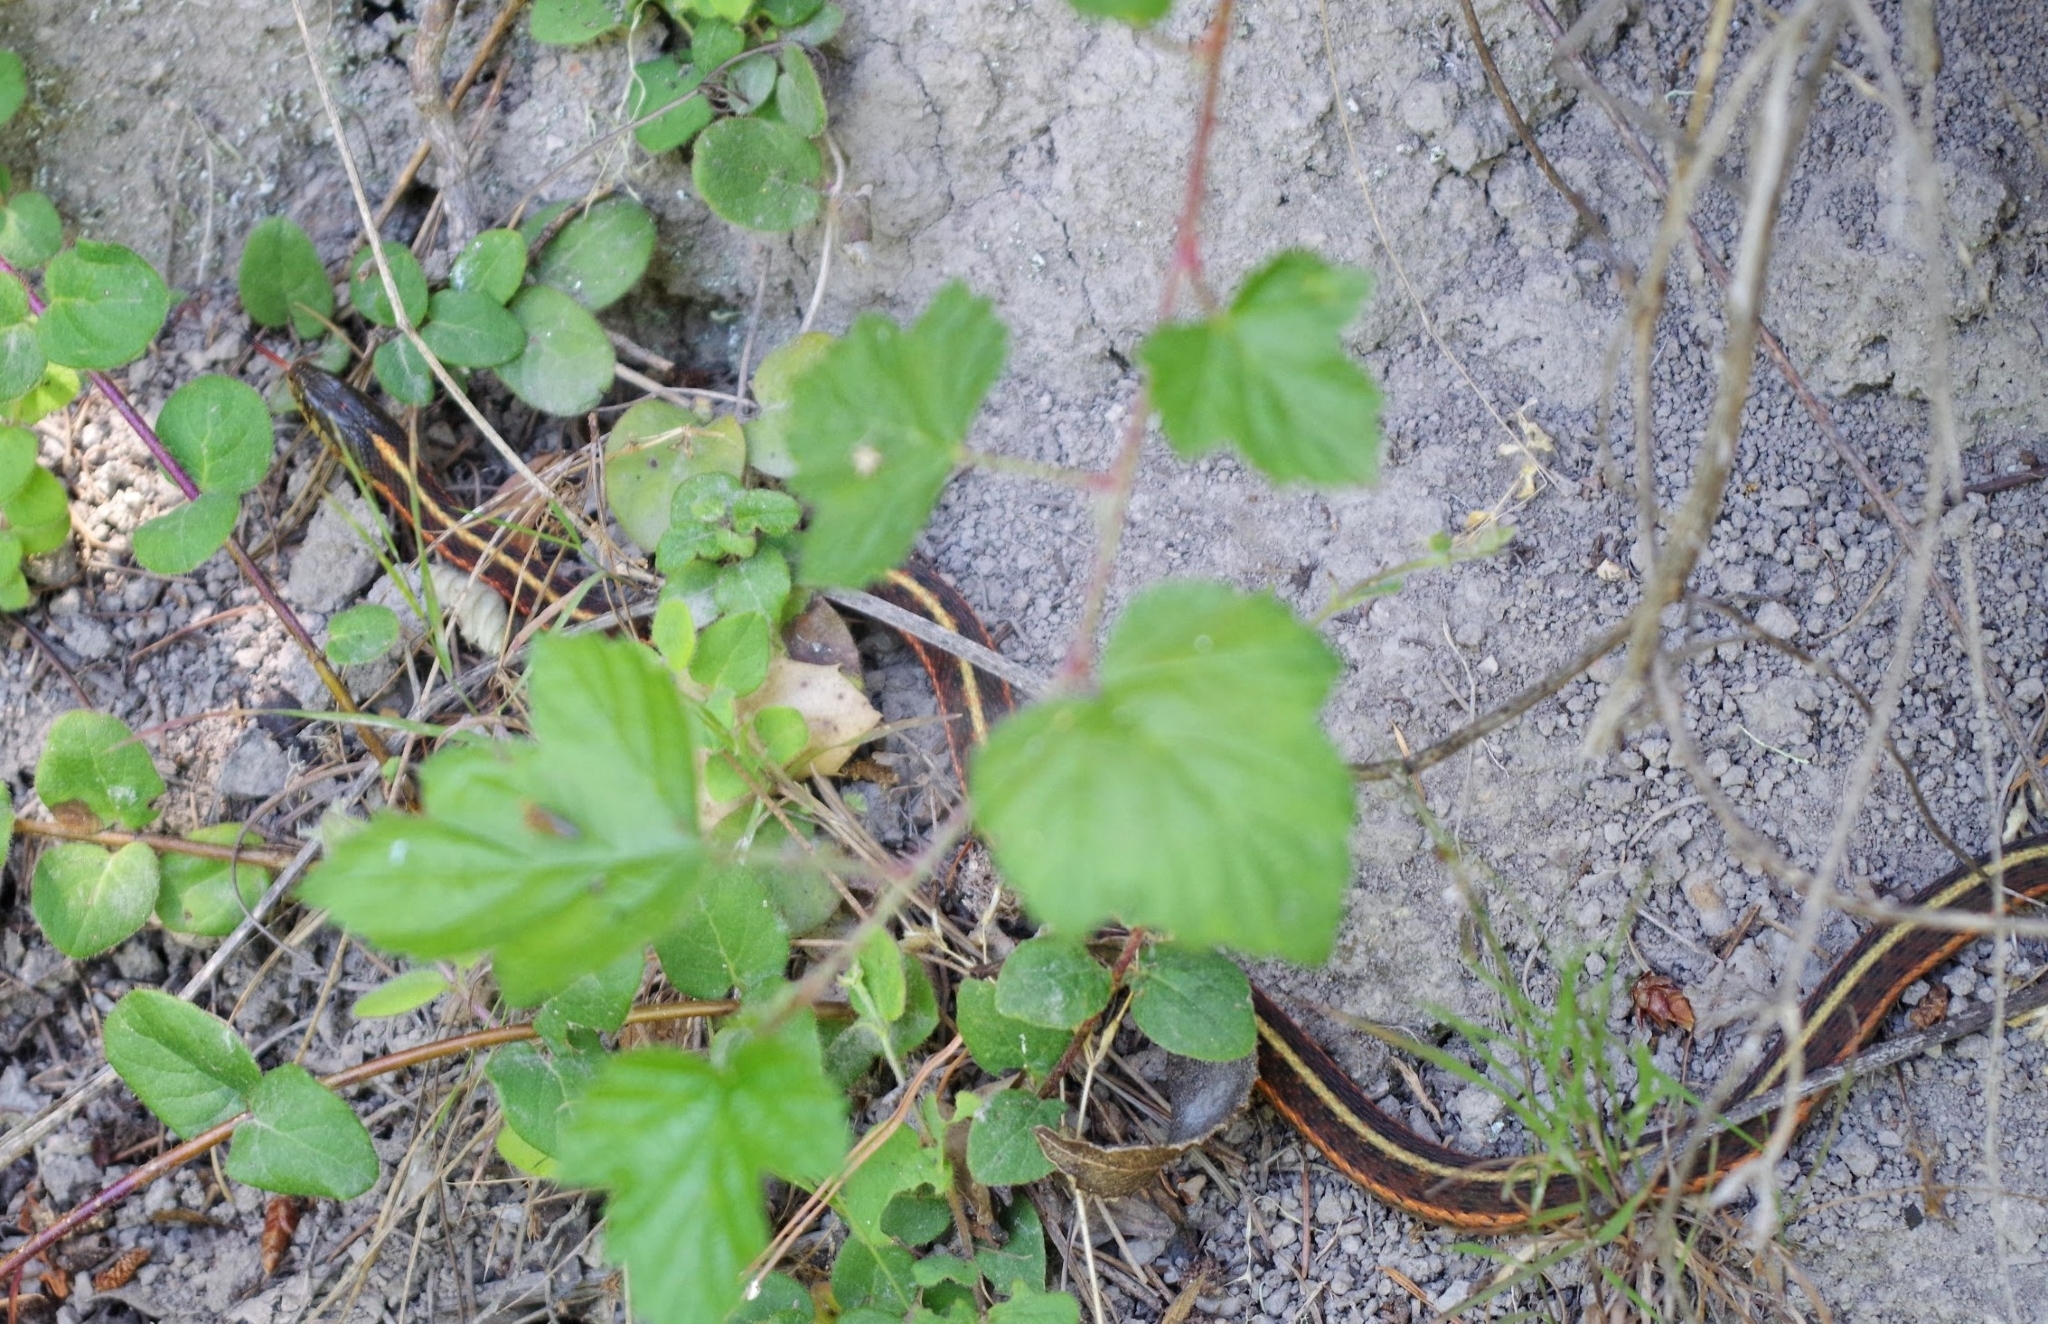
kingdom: Animalia
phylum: Chordata
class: Squamata
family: Colubridae
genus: Thamnophis
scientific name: Thamnophis elegans
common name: Western terrestrial garter snake
